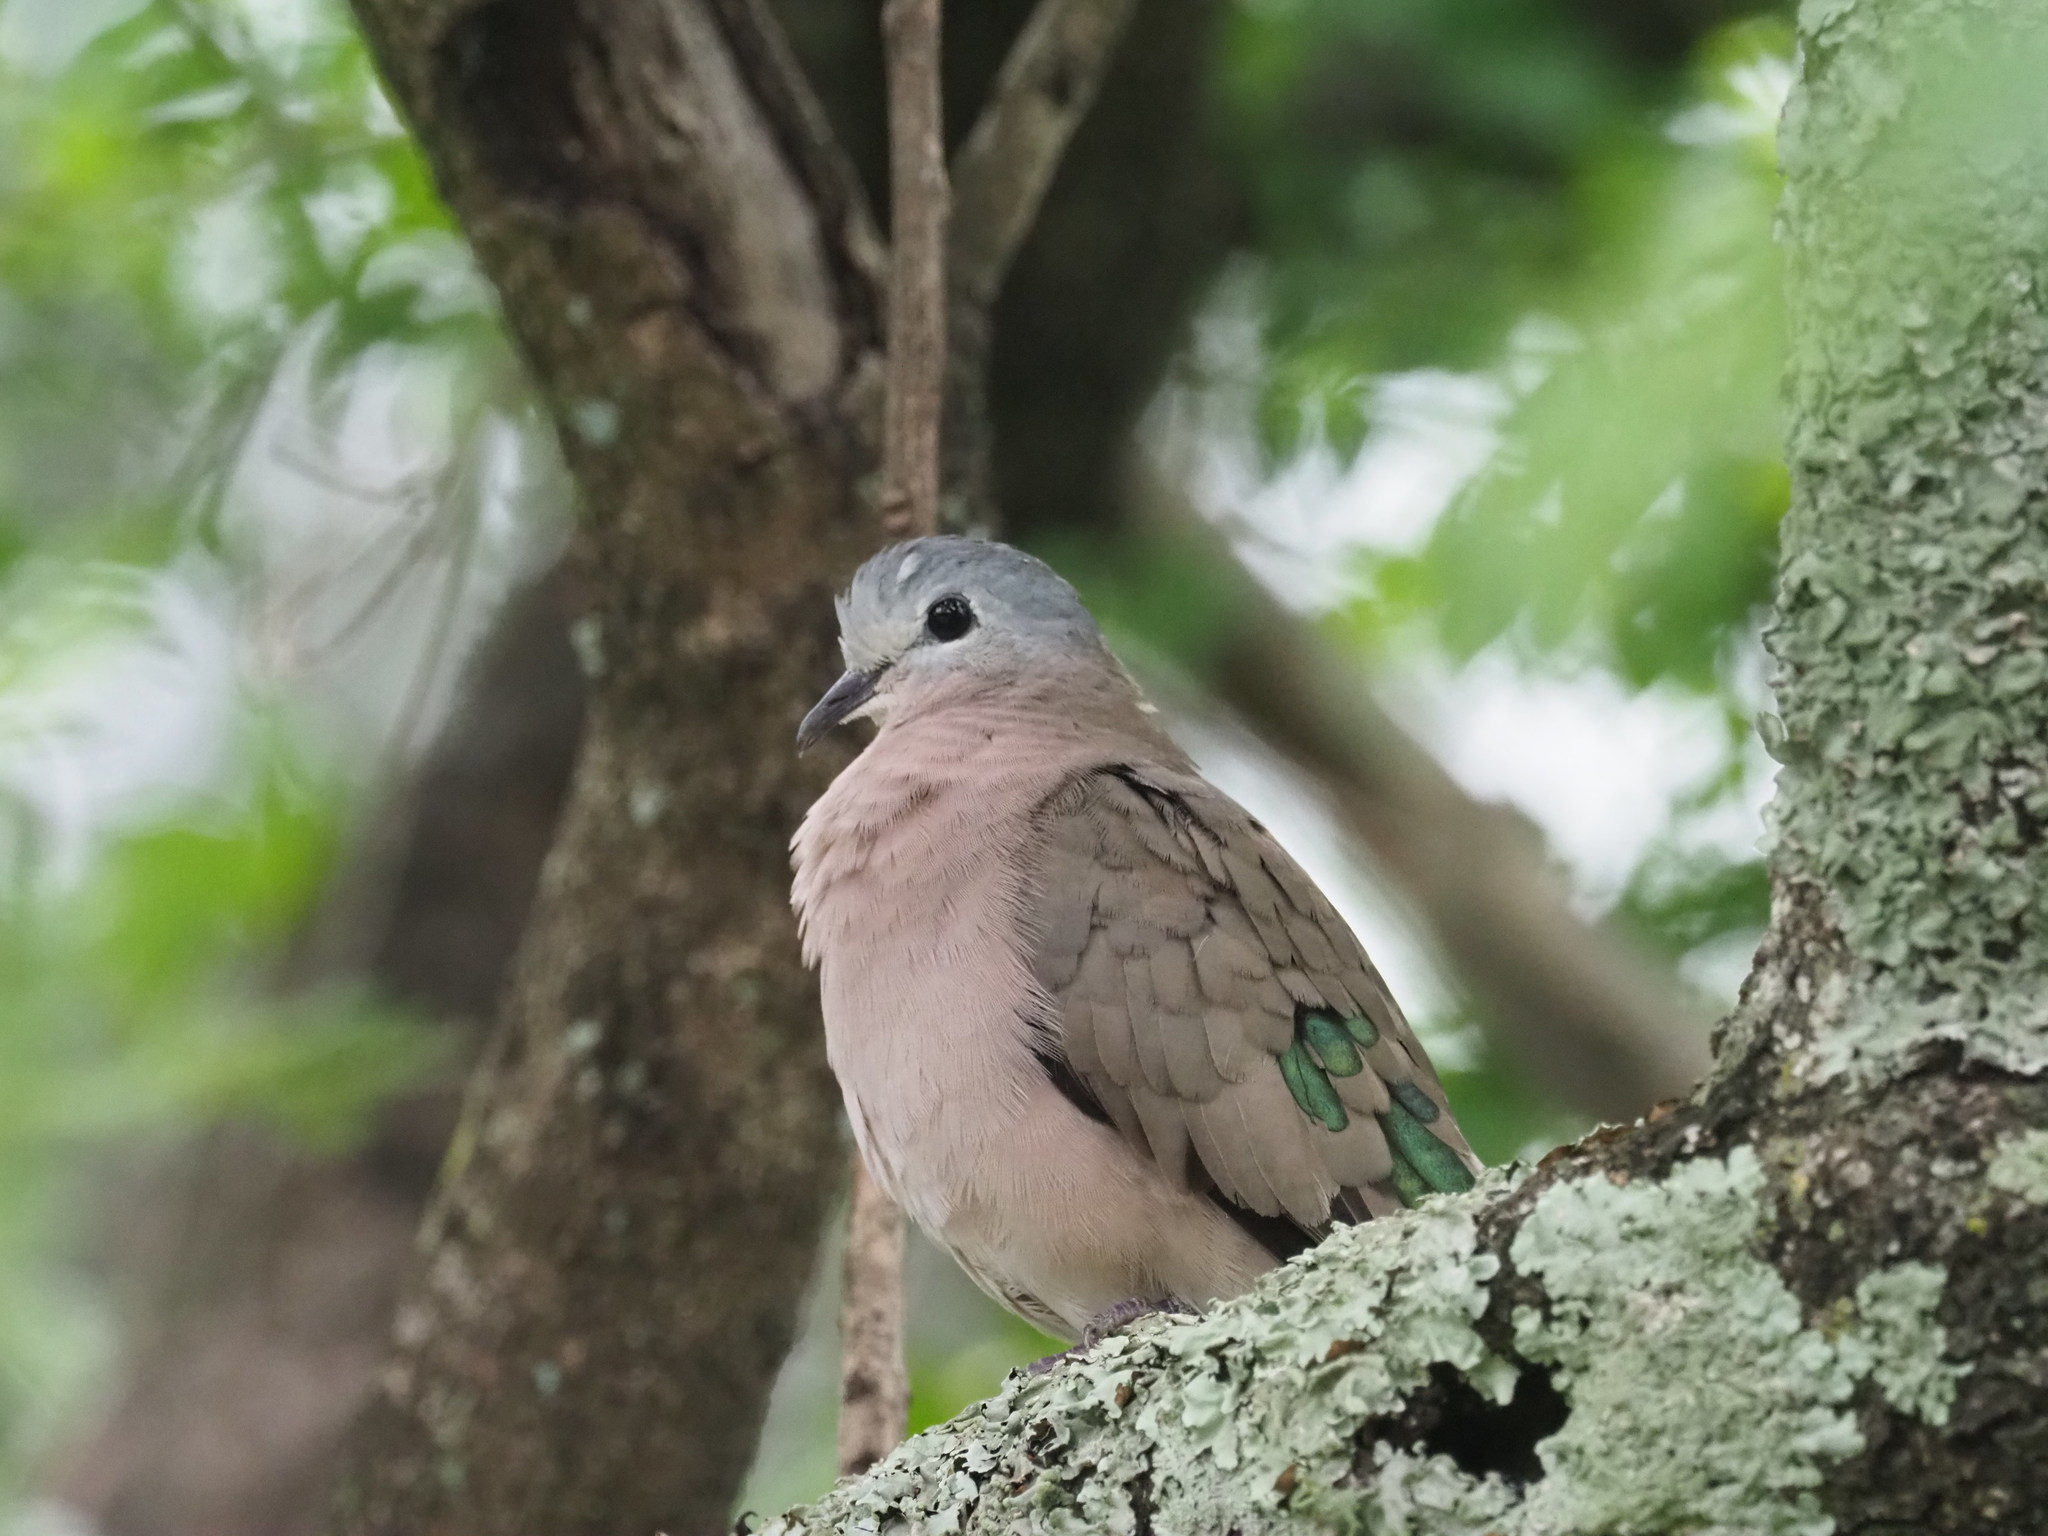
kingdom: Animalia
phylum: Chordata
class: Aves
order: Columbiformes
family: Columbidae
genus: Turtur
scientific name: Turtur chalcospilos
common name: Emerald-spotted wood dove
